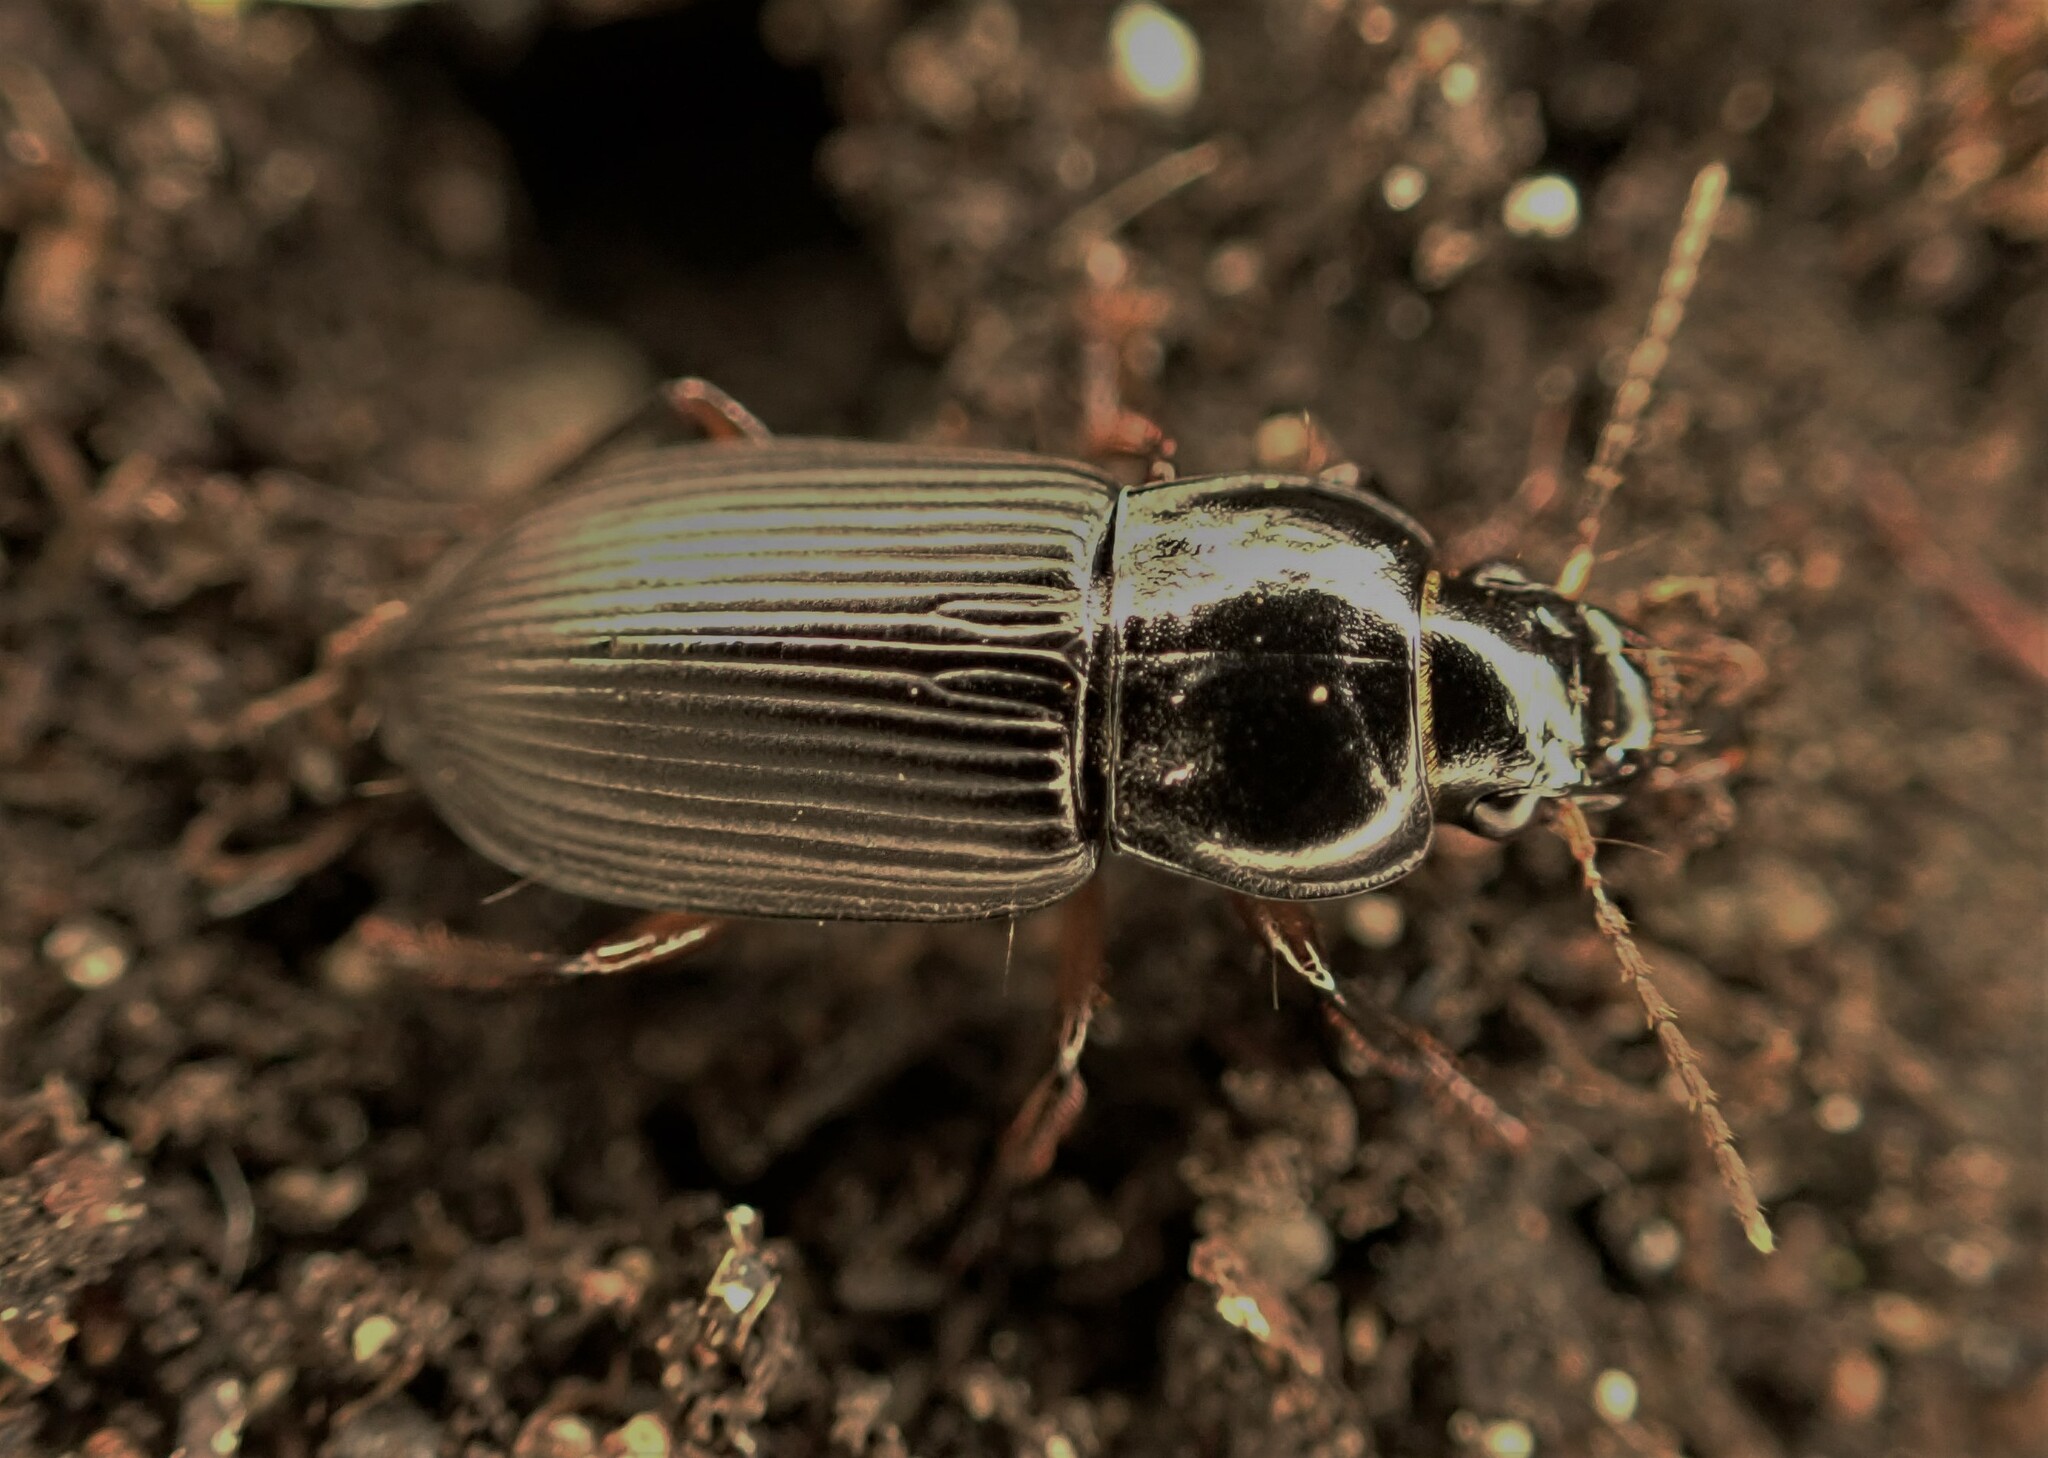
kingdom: Animalia
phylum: Arthropoda
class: Insecta
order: Coleoptera
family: Carabidae
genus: Anisodactylus
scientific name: Anisodactylus binotatus
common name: Two-marked harp ground beetle
